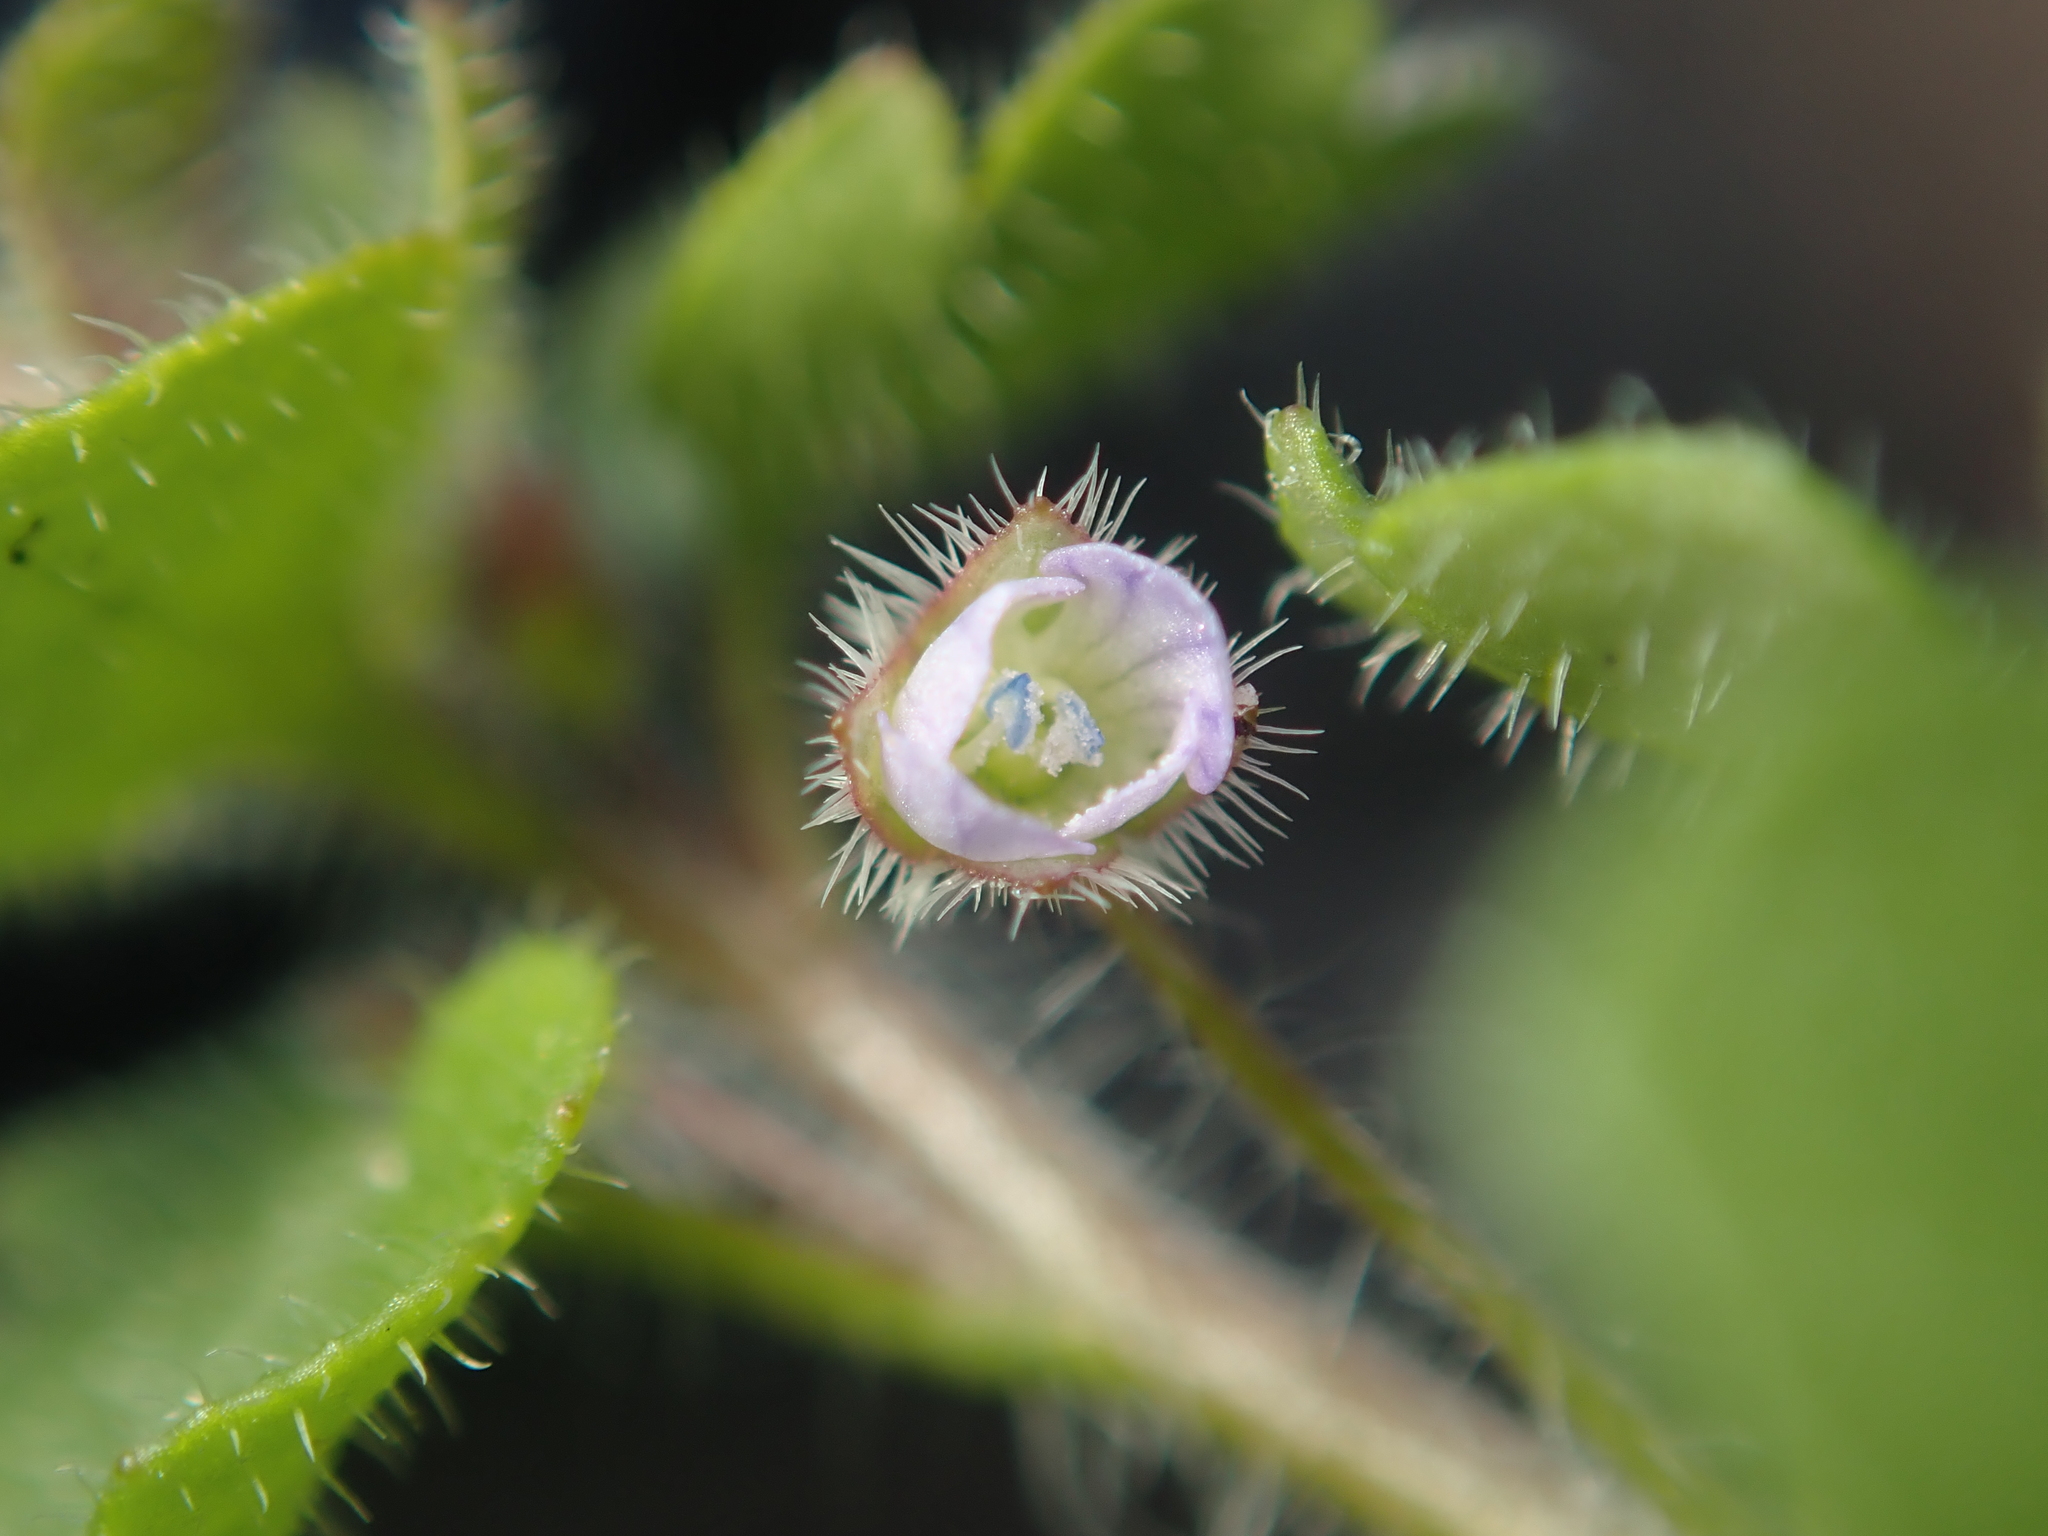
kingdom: Plantae
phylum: Tracheophyta
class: Magnoliopsida
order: Lamiales
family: Plantaginaceae
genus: Veronica
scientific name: Veronica hederifolia
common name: Ivy-leaved speedwell
